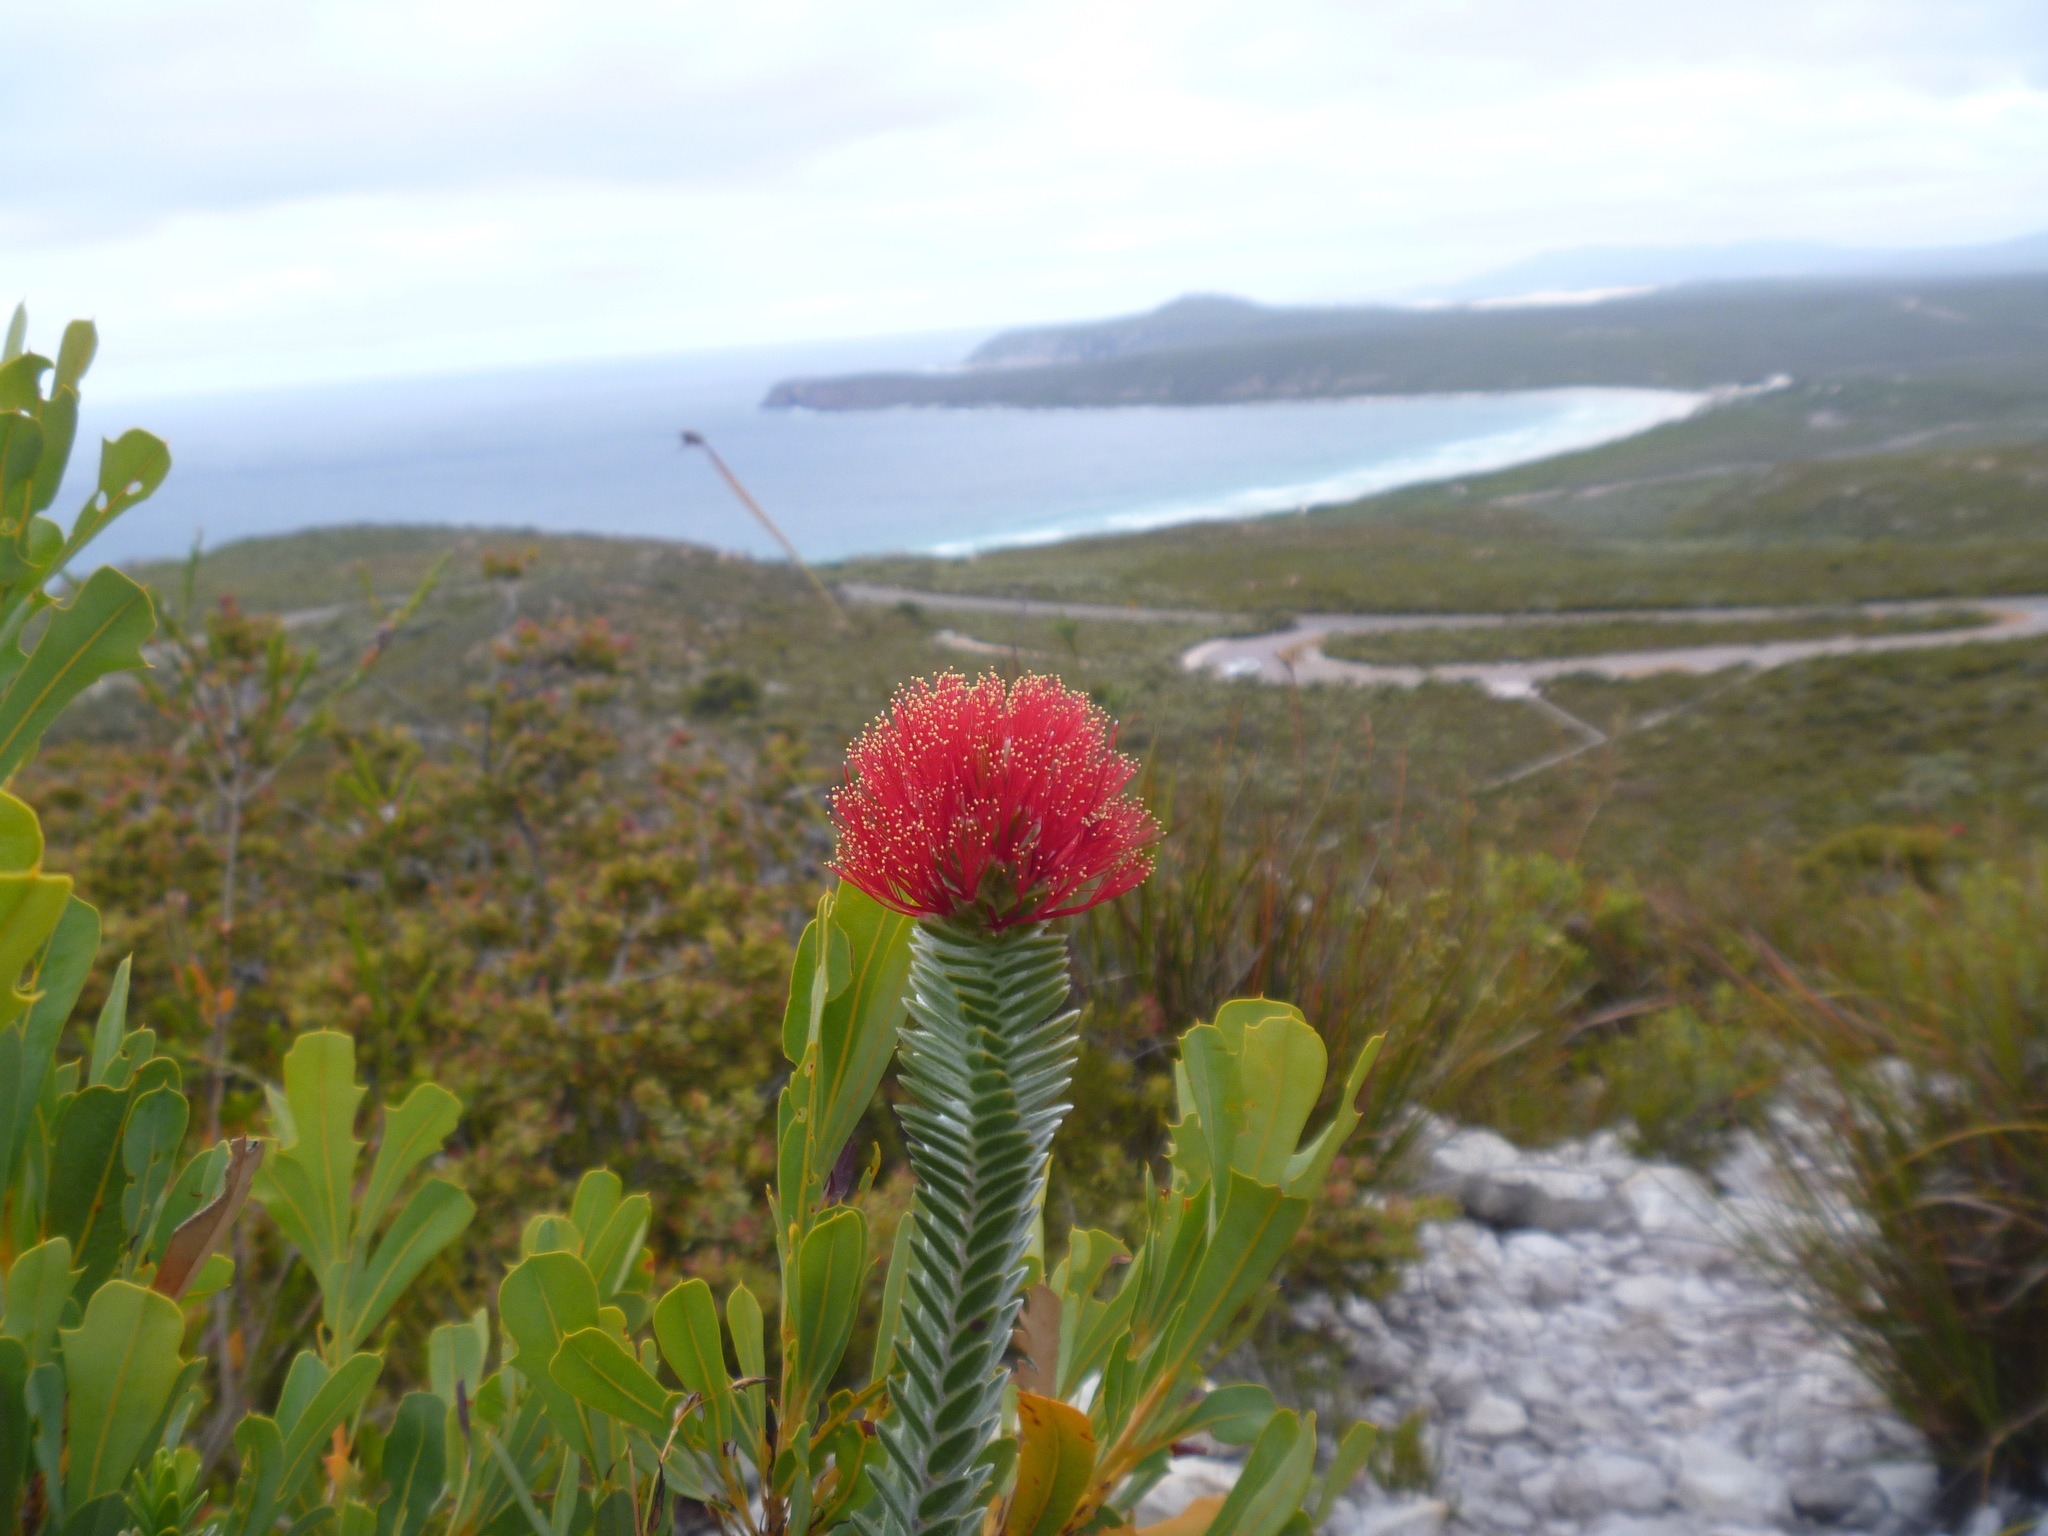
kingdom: Plantae
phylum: Tracheophyta
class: Magnoliopsida
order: Myrtales
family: Myrtaceae
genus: Melaleuca
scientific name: Melaleuca velutina
